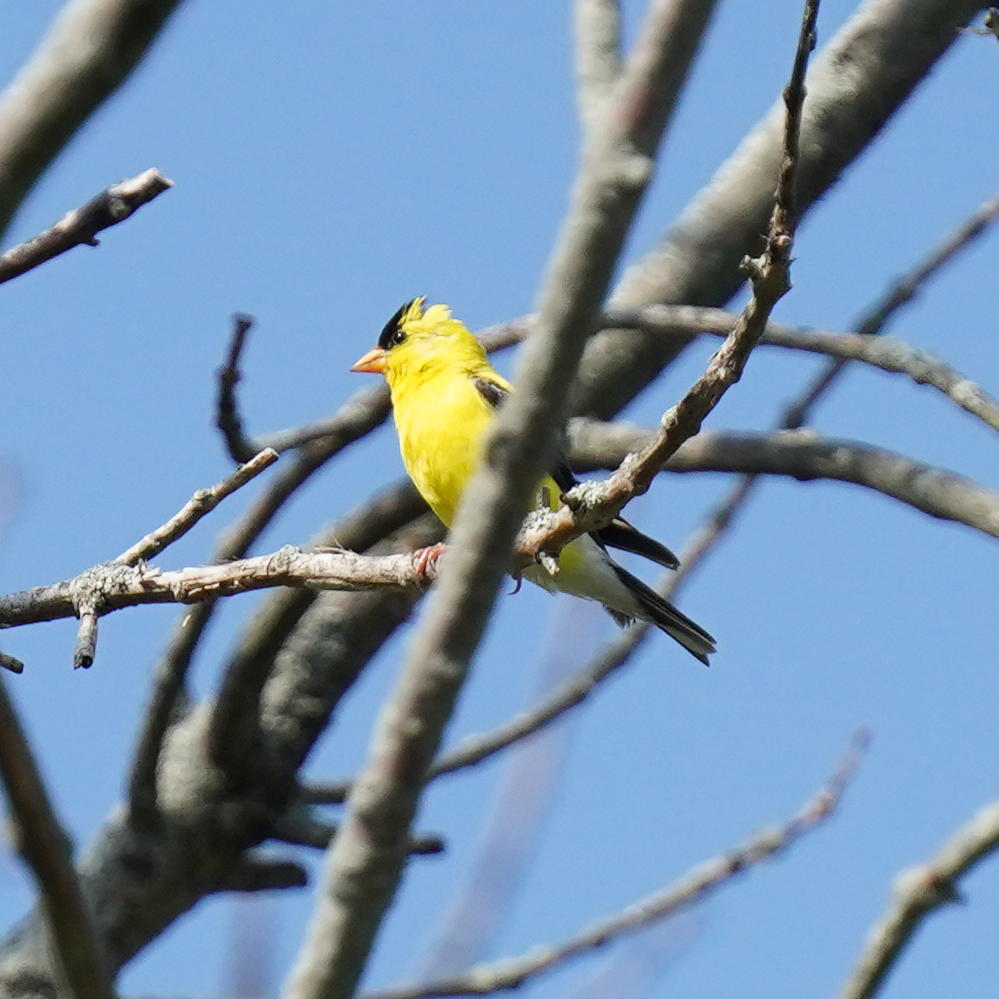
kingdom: Animalia
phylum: Chordata
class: Aves
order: Passeriformes
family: Fringillidae
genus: Spinus
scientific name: Spinus tristis
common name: American goldfinch
